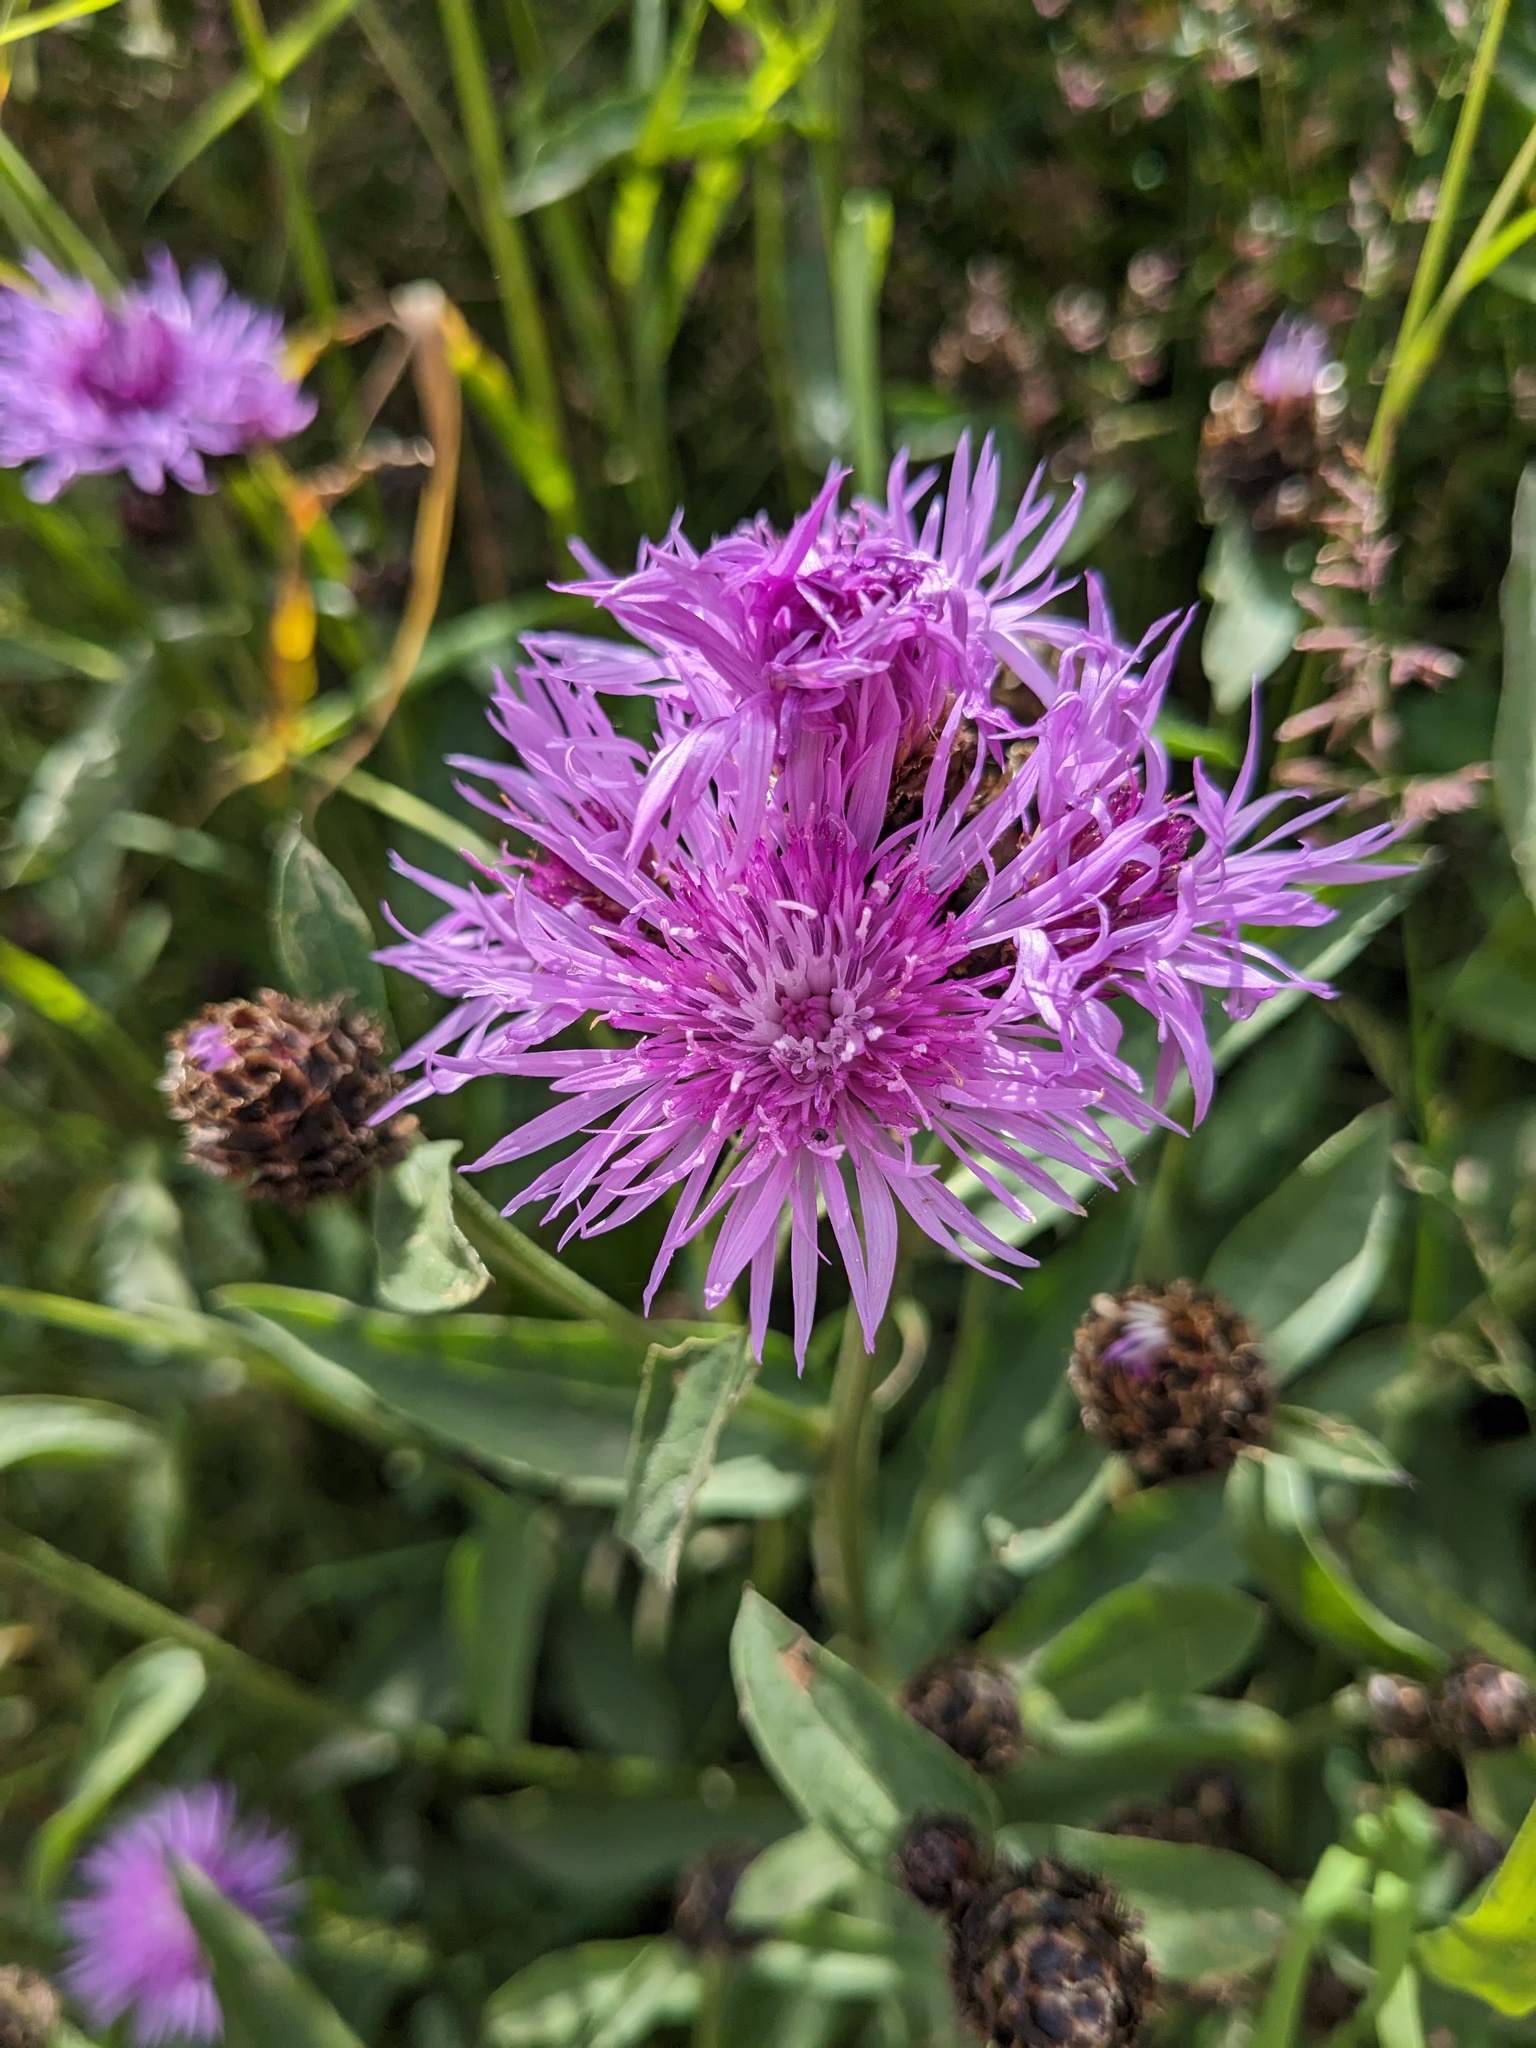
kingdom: Plantae
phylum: Tracheophyta
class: Magnoliopsida
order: Asterales
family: Asteraceae
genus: Centaurea
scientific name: Centaurea nigrescens
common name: Tyrol knapweed
